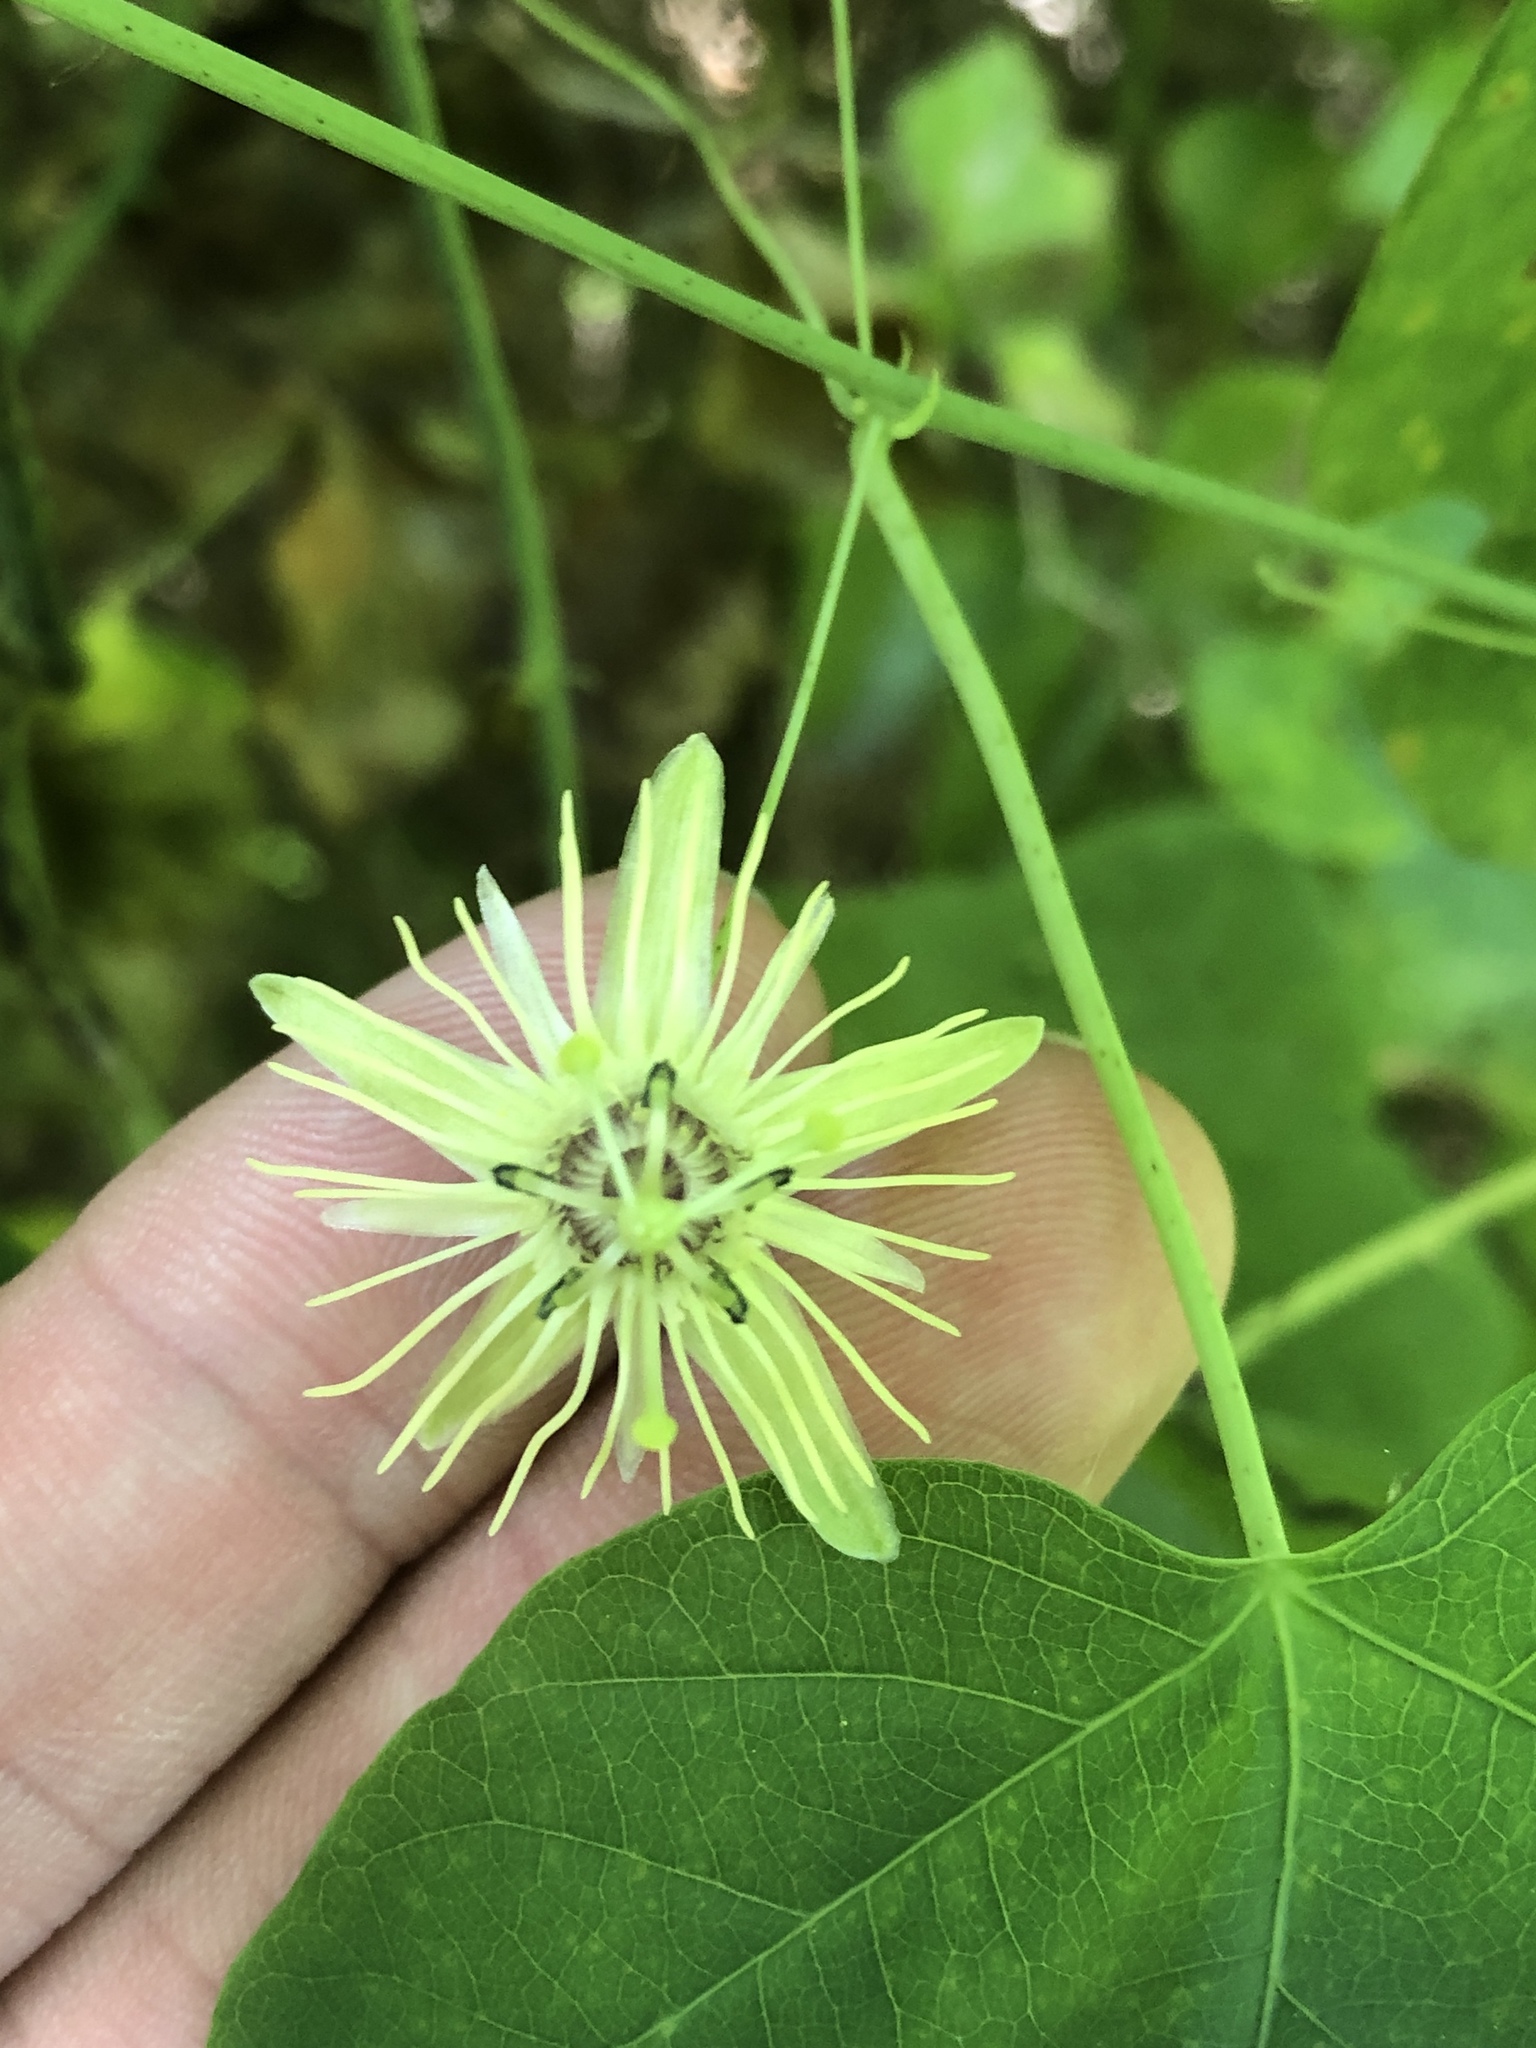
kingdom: Plantae
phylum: Tracheophyta
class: Magnoliopsida
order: Malpighiales
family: Passifloraceae
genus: Passiflora
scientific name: Passiflora lutea
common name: Yellow passionflower
